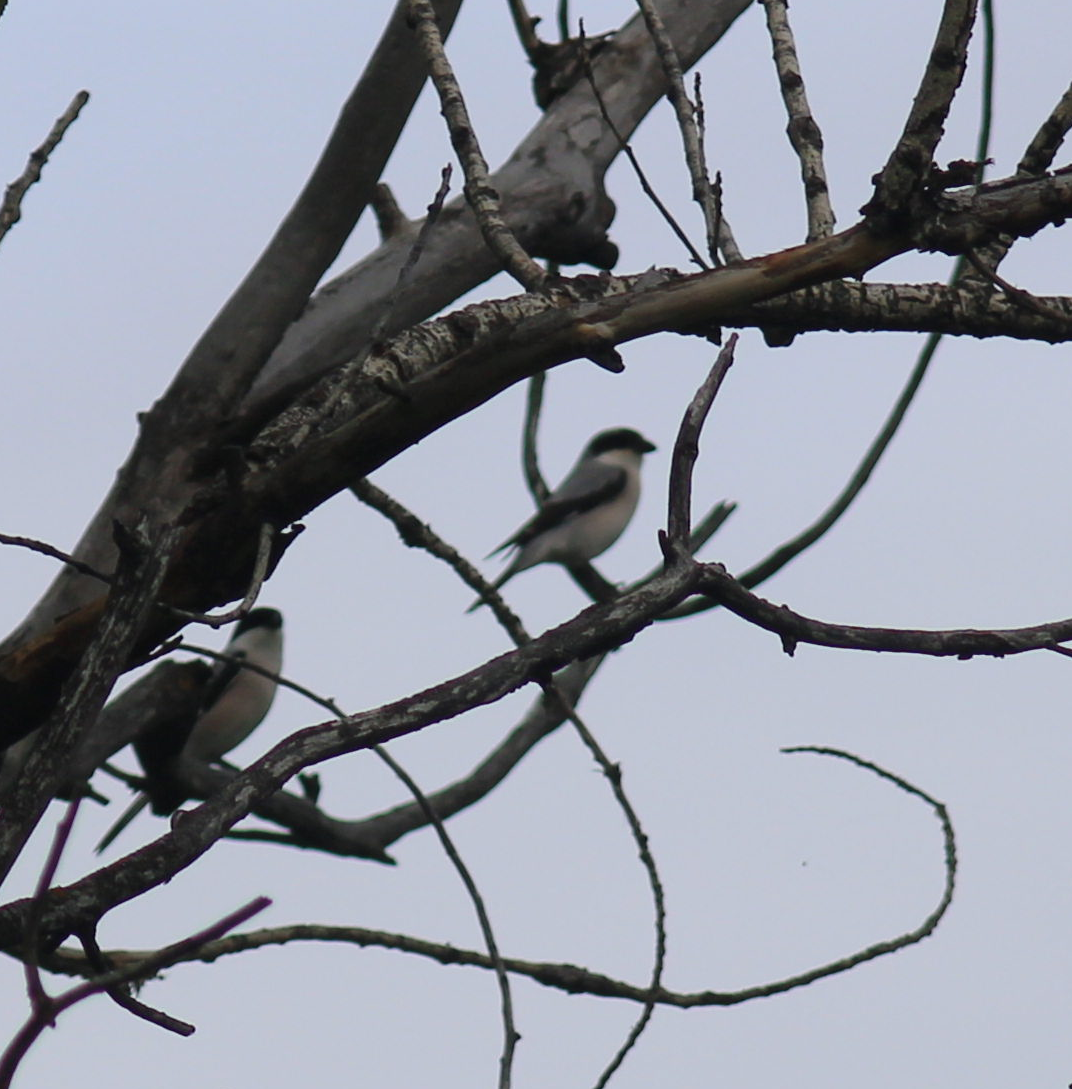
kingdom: Animalia
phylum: Chordata
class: Aves
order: Passeriformes
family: Laniidae
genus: Lanius
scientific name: Lanius minor
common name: Lesser grey shrike
